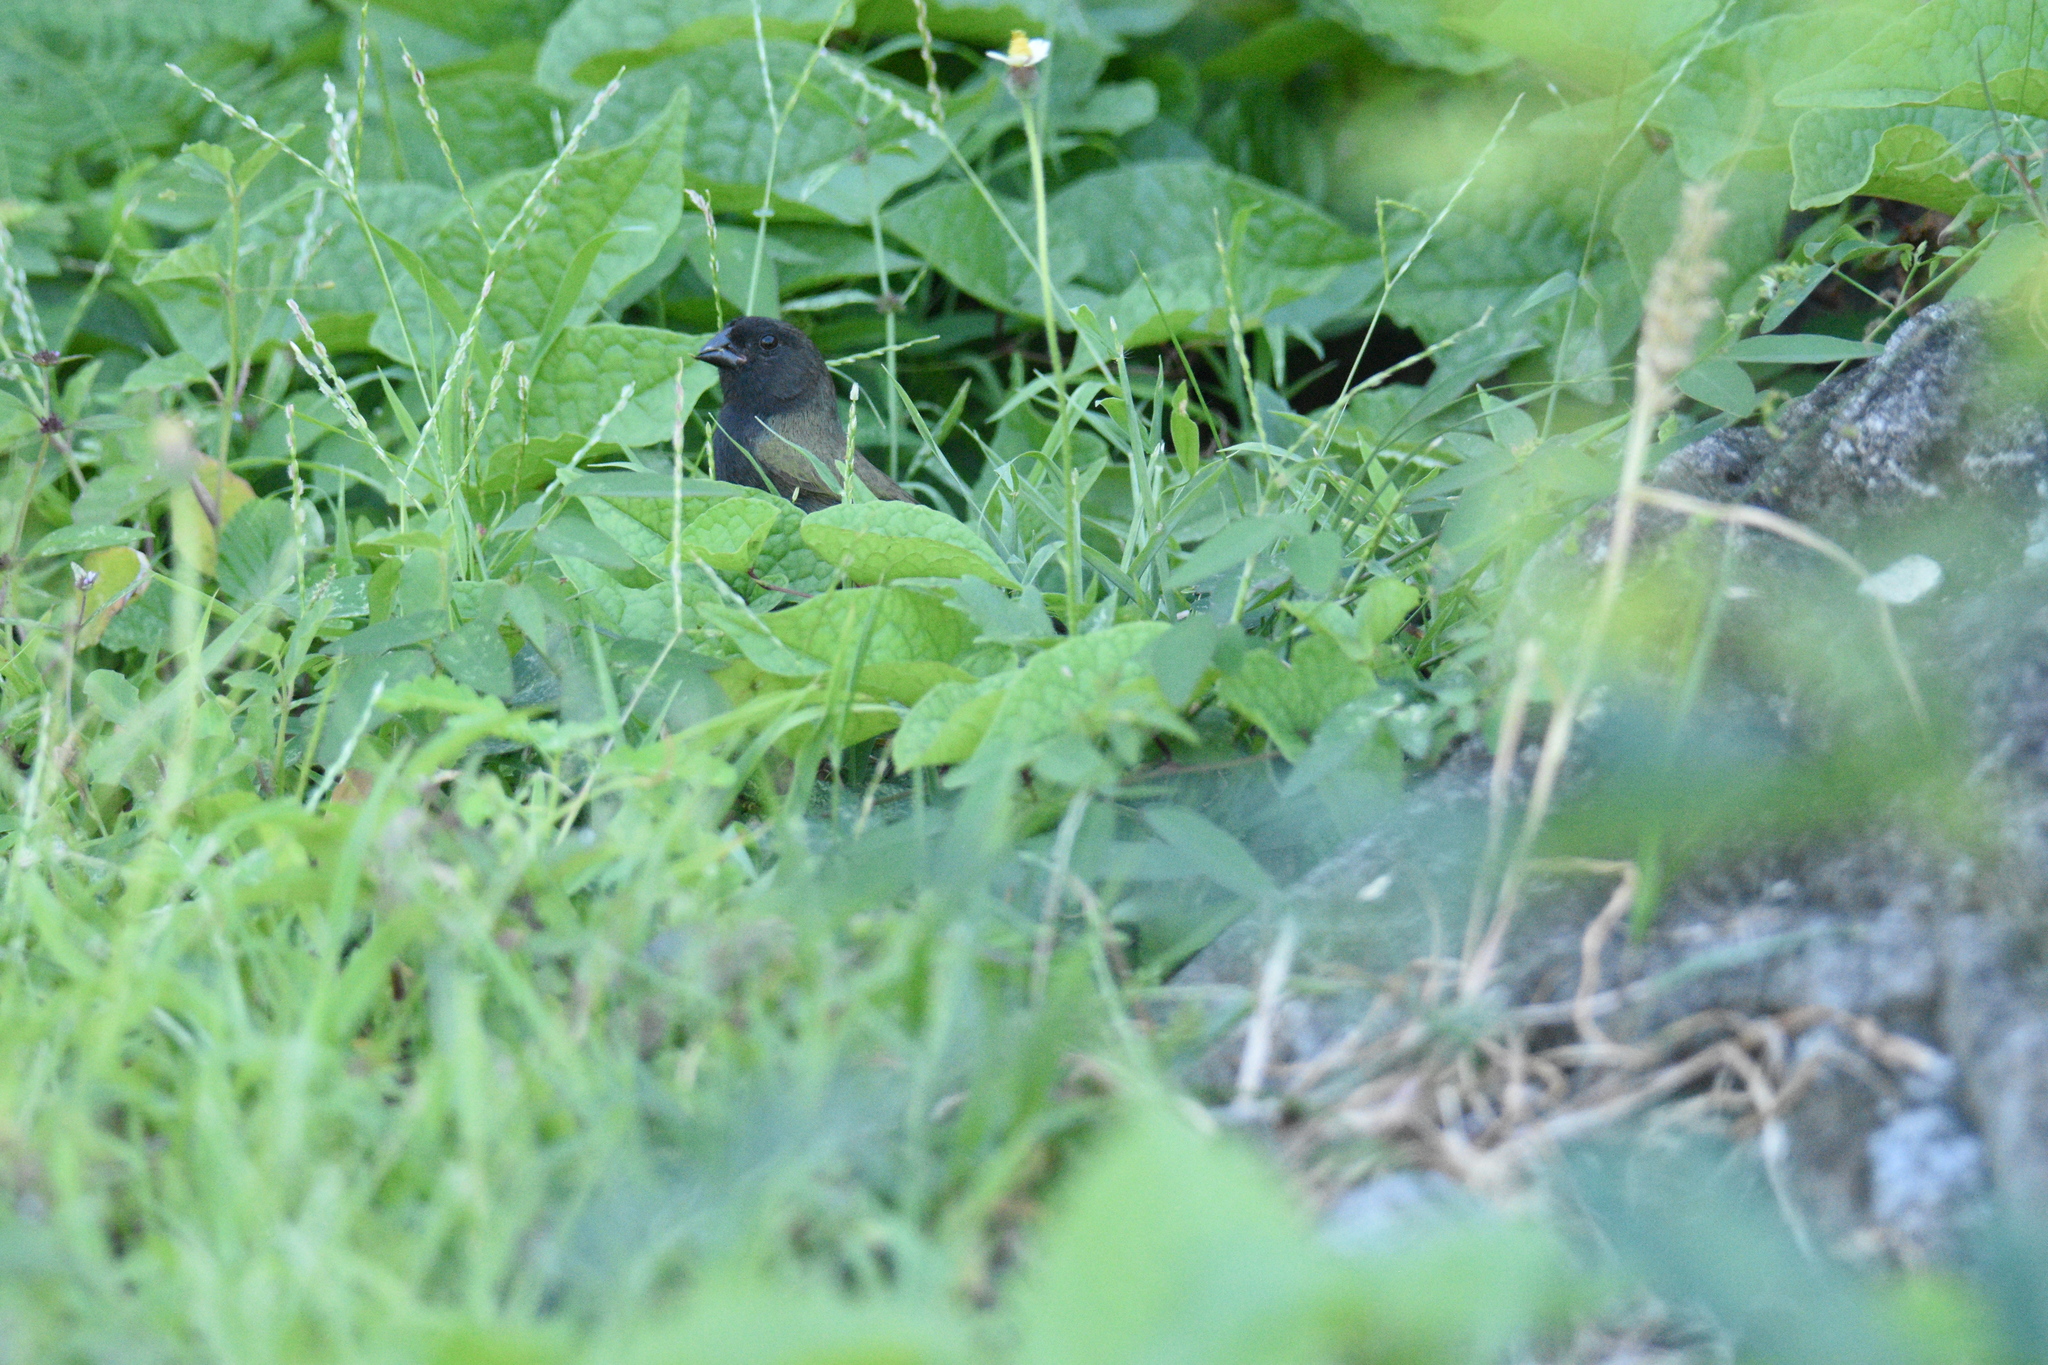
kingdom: Animalia
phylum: Chordata
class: Aves
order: Passeriformes
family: Thraupidae
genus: Melanospiza
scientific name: Melanospiza bicolor
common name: Black-faced grassquit
